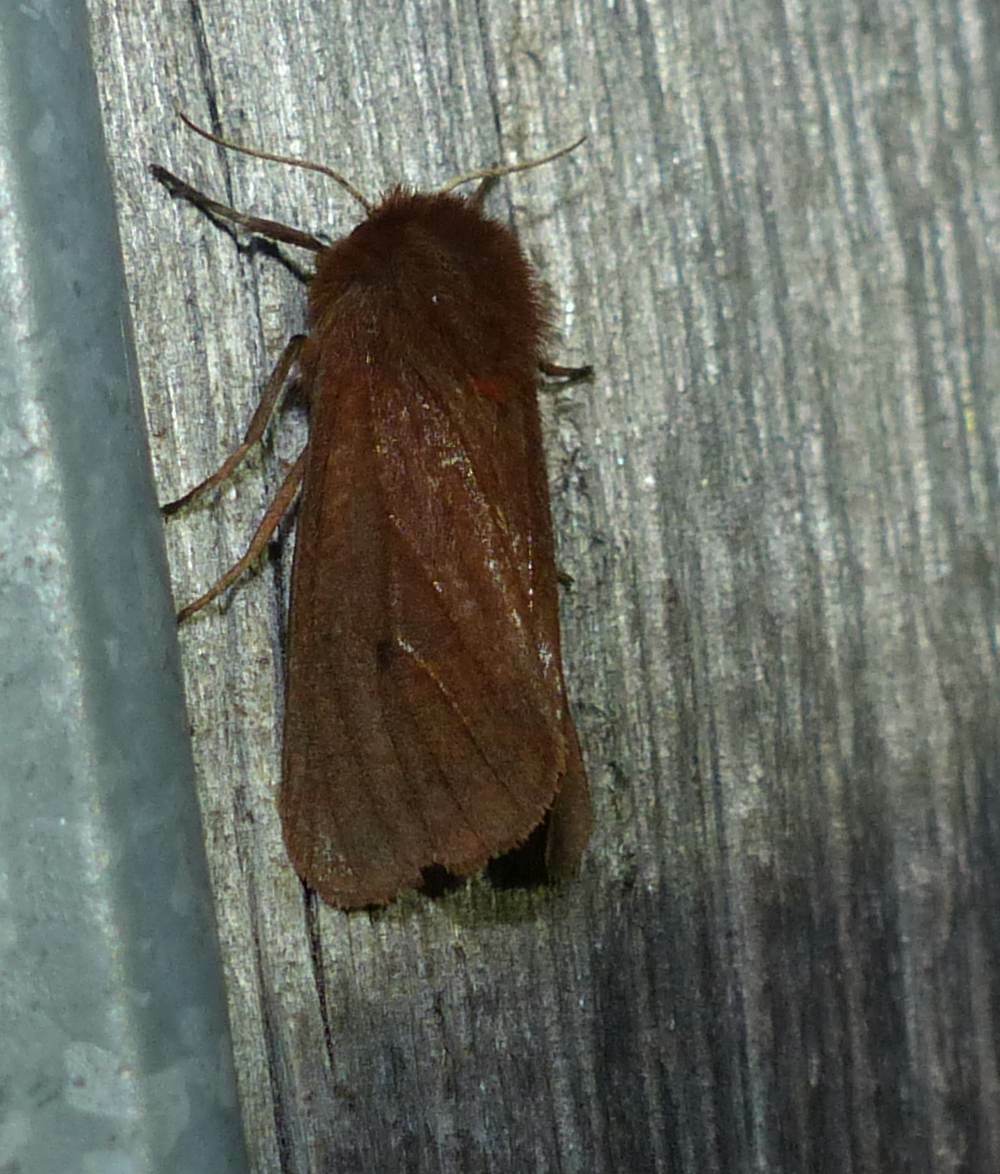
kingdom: Animalia
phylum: Arthropoda
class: Insecta
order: Lepidoptera
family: Erebidae
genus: Phragmatobia
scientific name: Phragmatobia fuliginosa
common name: Ruby tiger
